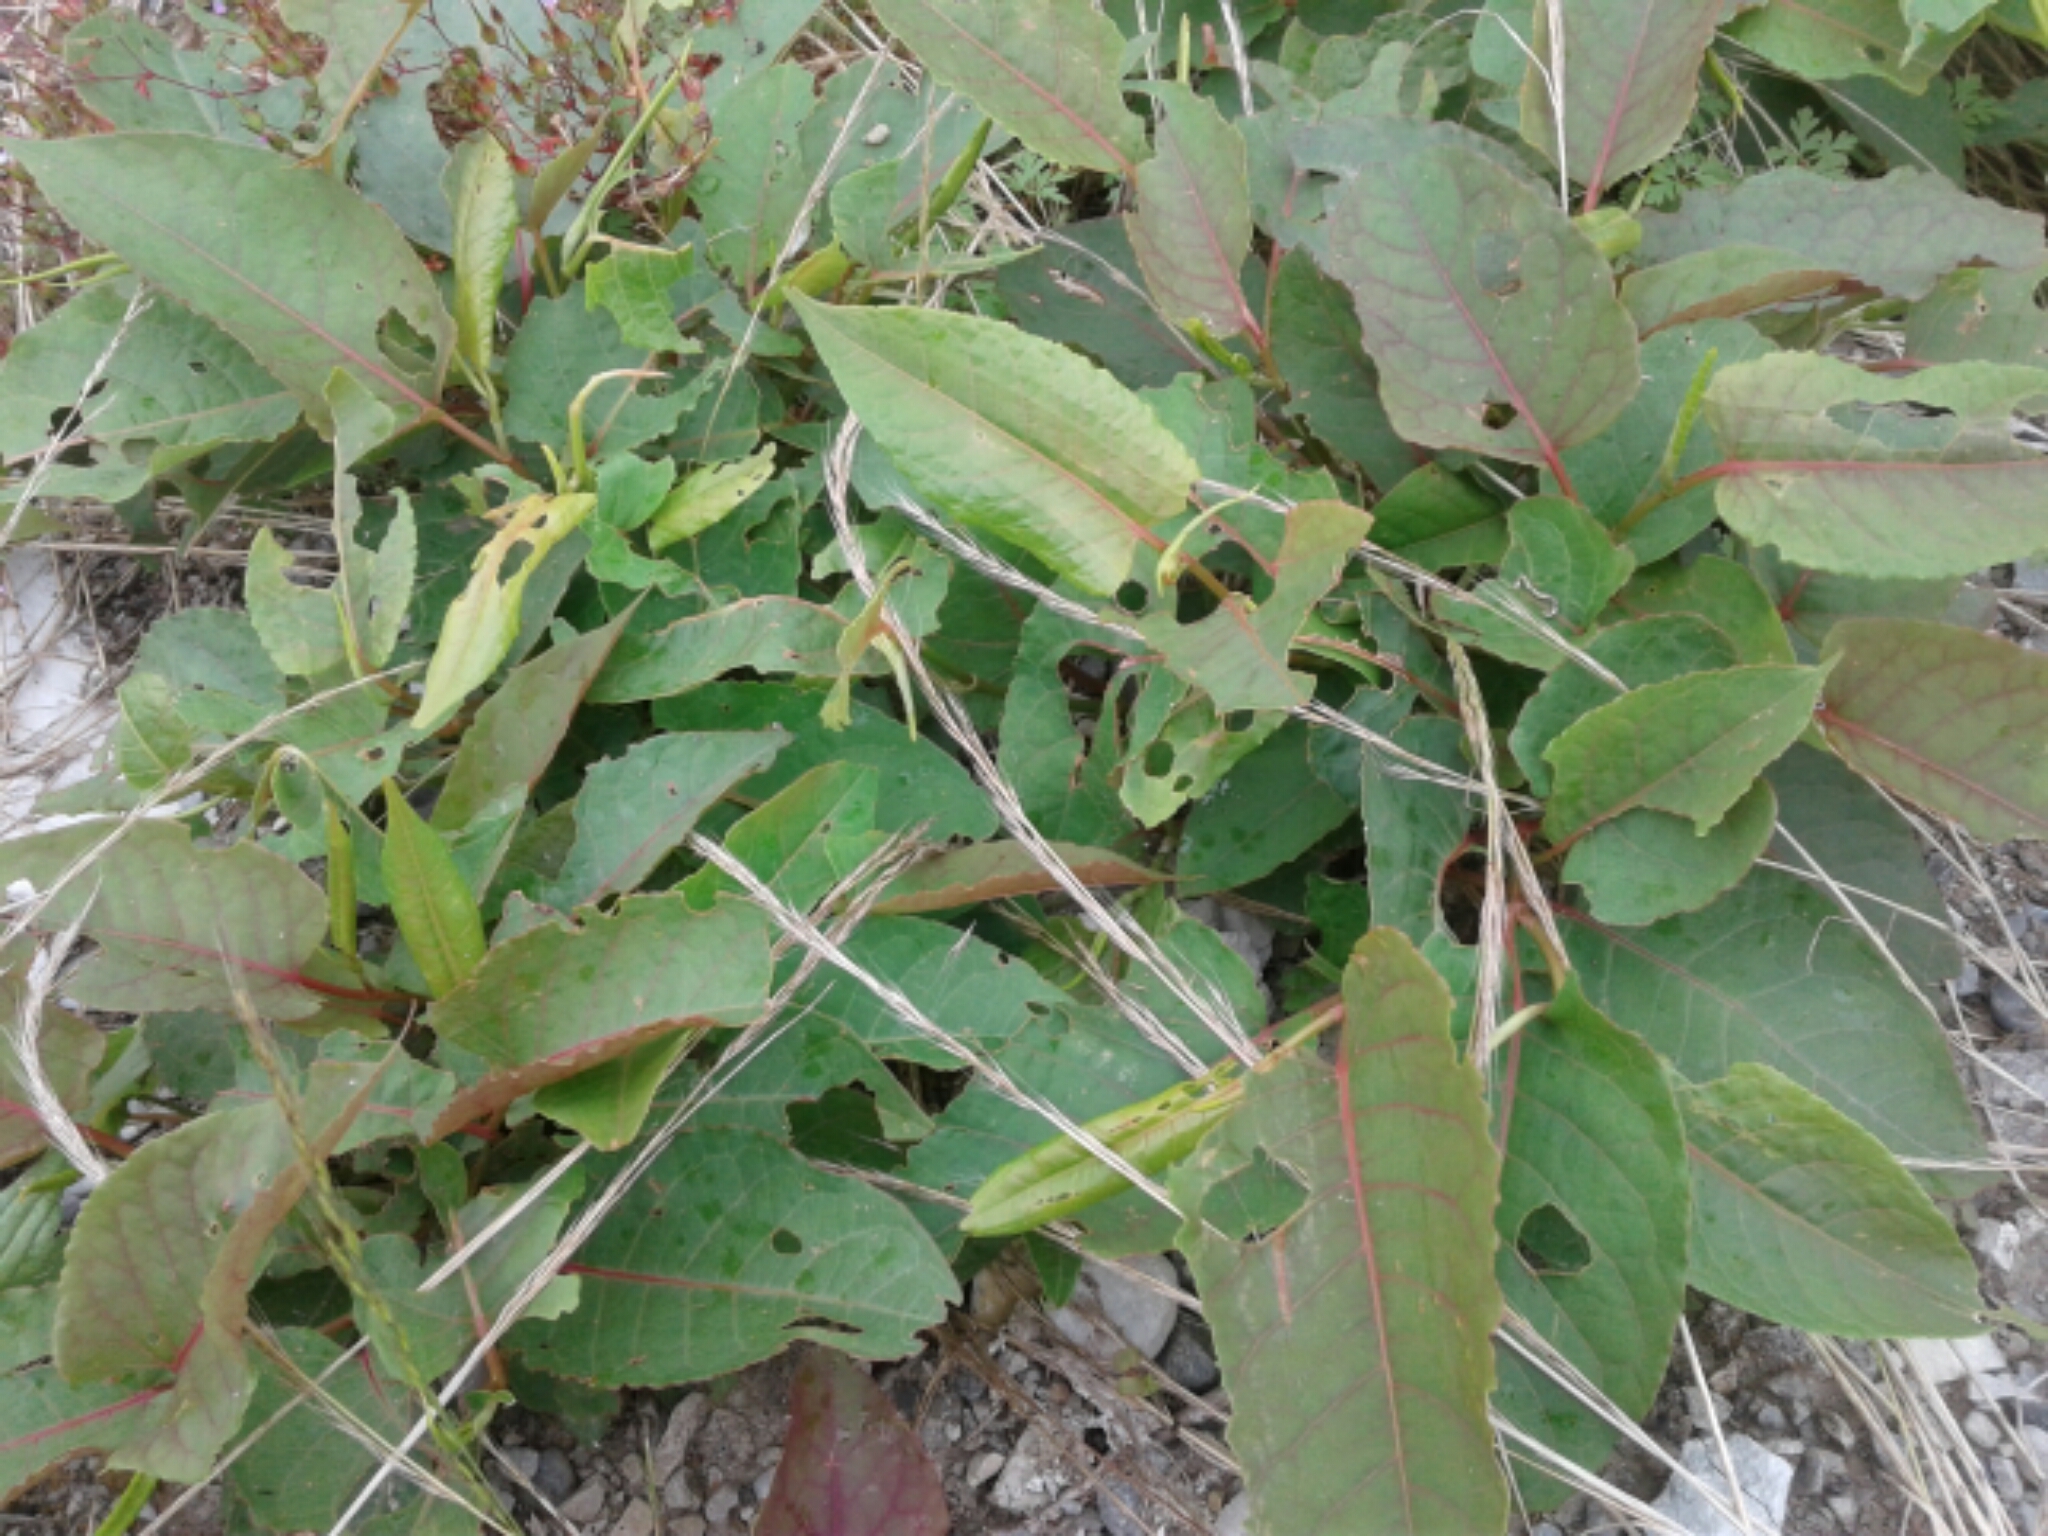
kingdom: Plantae
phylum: Tracheophyta
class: Magnoliopsida
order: Caryophyllales
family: Polygonaceae
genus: Rumex
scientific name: Rumex obtusifolius
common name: Bitter dock
